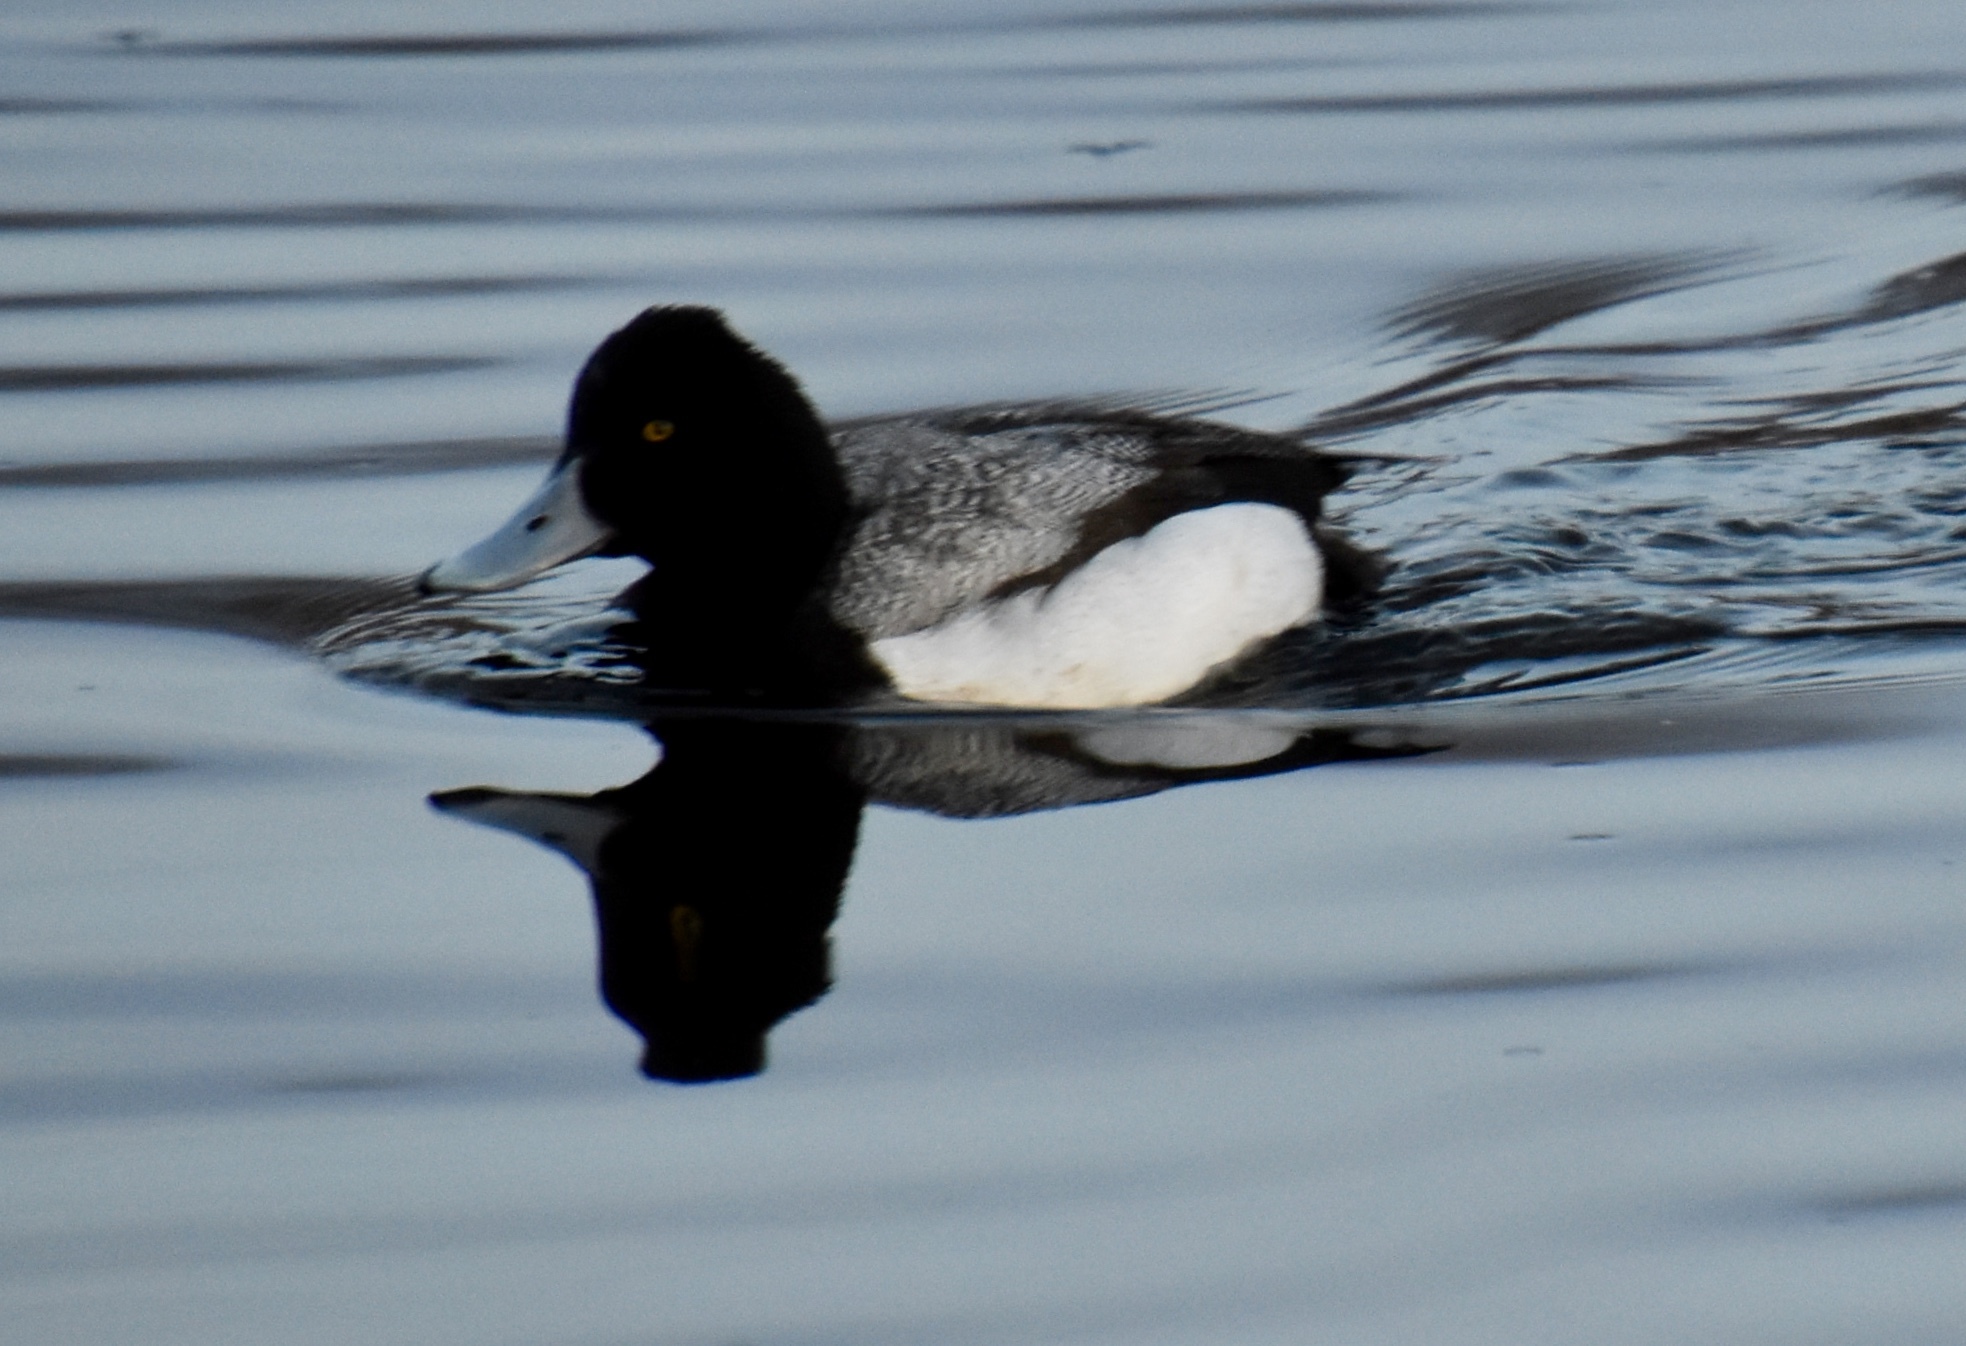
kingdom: Animalia
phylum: Chordata
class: Aves
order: Anseriformes
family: Anatidae
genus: Aythya
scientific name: Aythya affinis
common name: Lesser scaup
